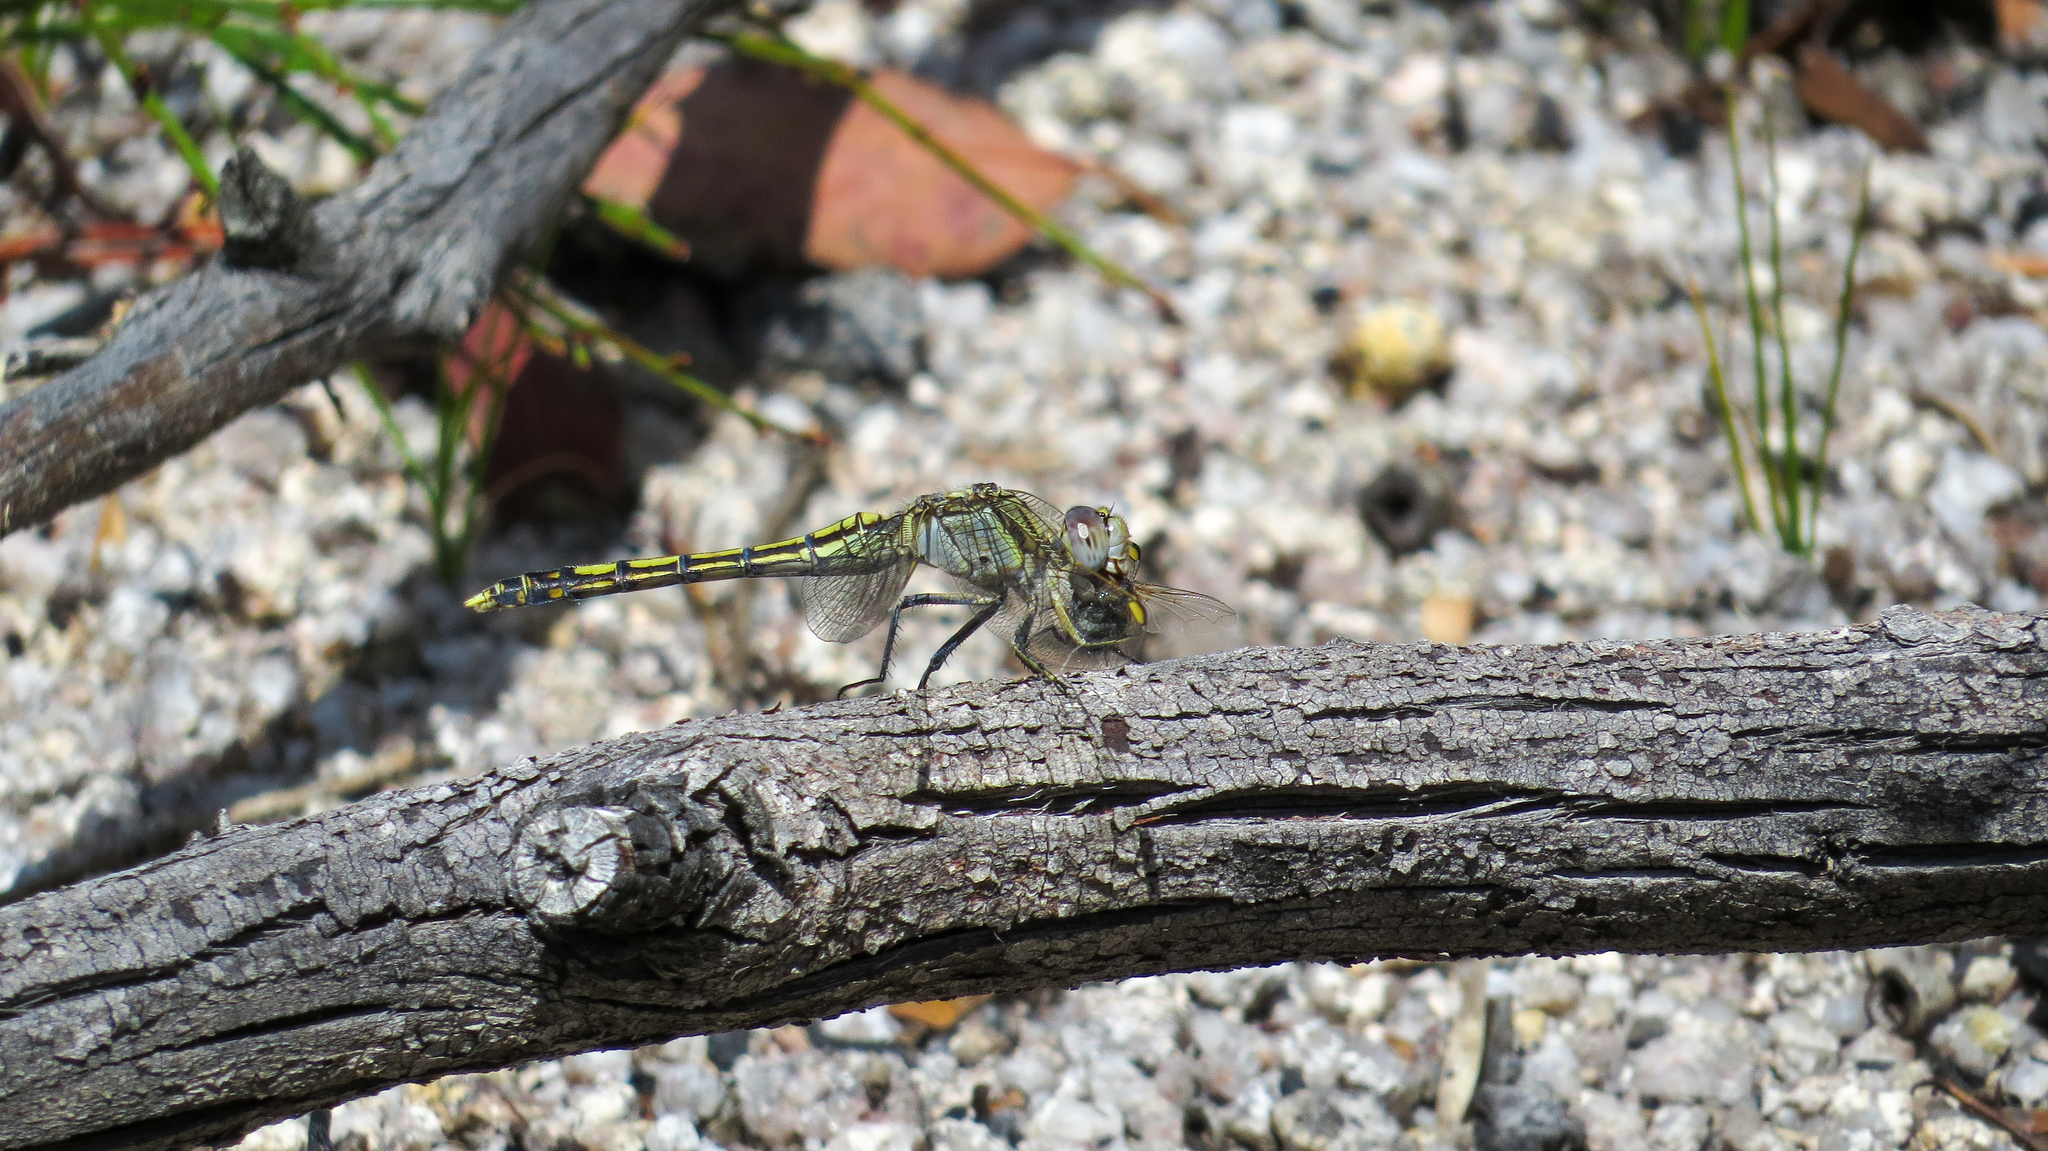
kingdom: Animalia
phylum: Arthropoda
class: Insecta
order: Odonata
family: Libellulidae
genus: Orthetrum
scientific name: Orthetrum caledonicum
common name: Blue skimmer
